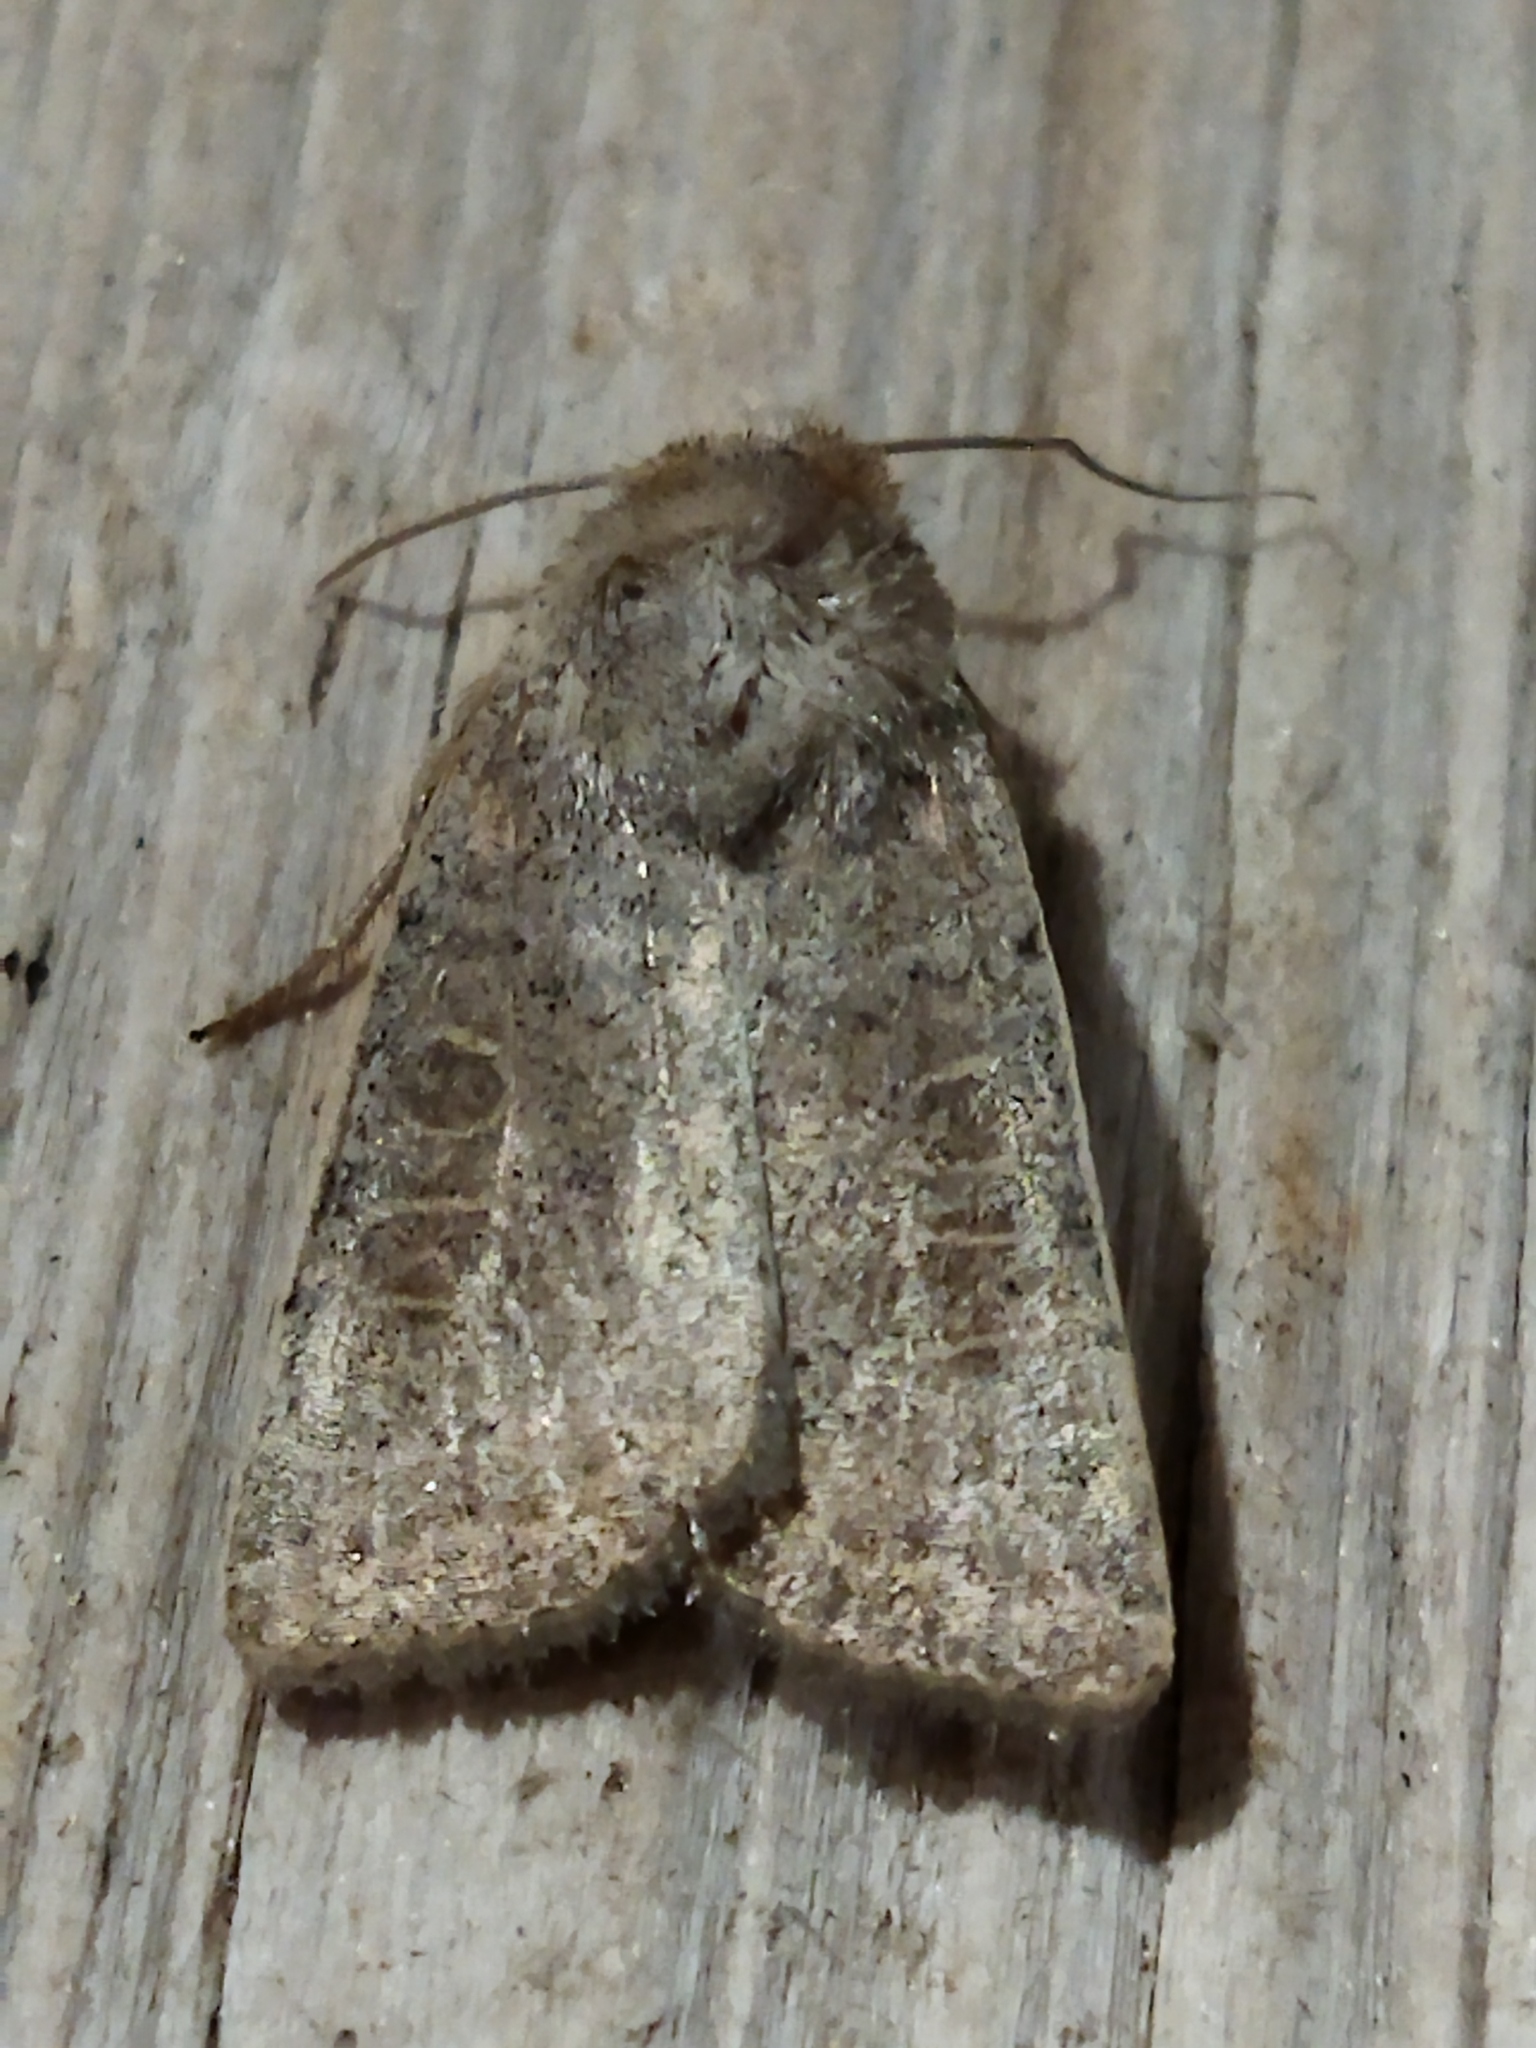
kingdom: Animalia
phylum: Arthropoda
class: Insecta
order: Lepidoptera
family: Noctuidae
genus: Hoplodrina
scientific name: Hoplodrina ambigua
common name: Vine's rustic
